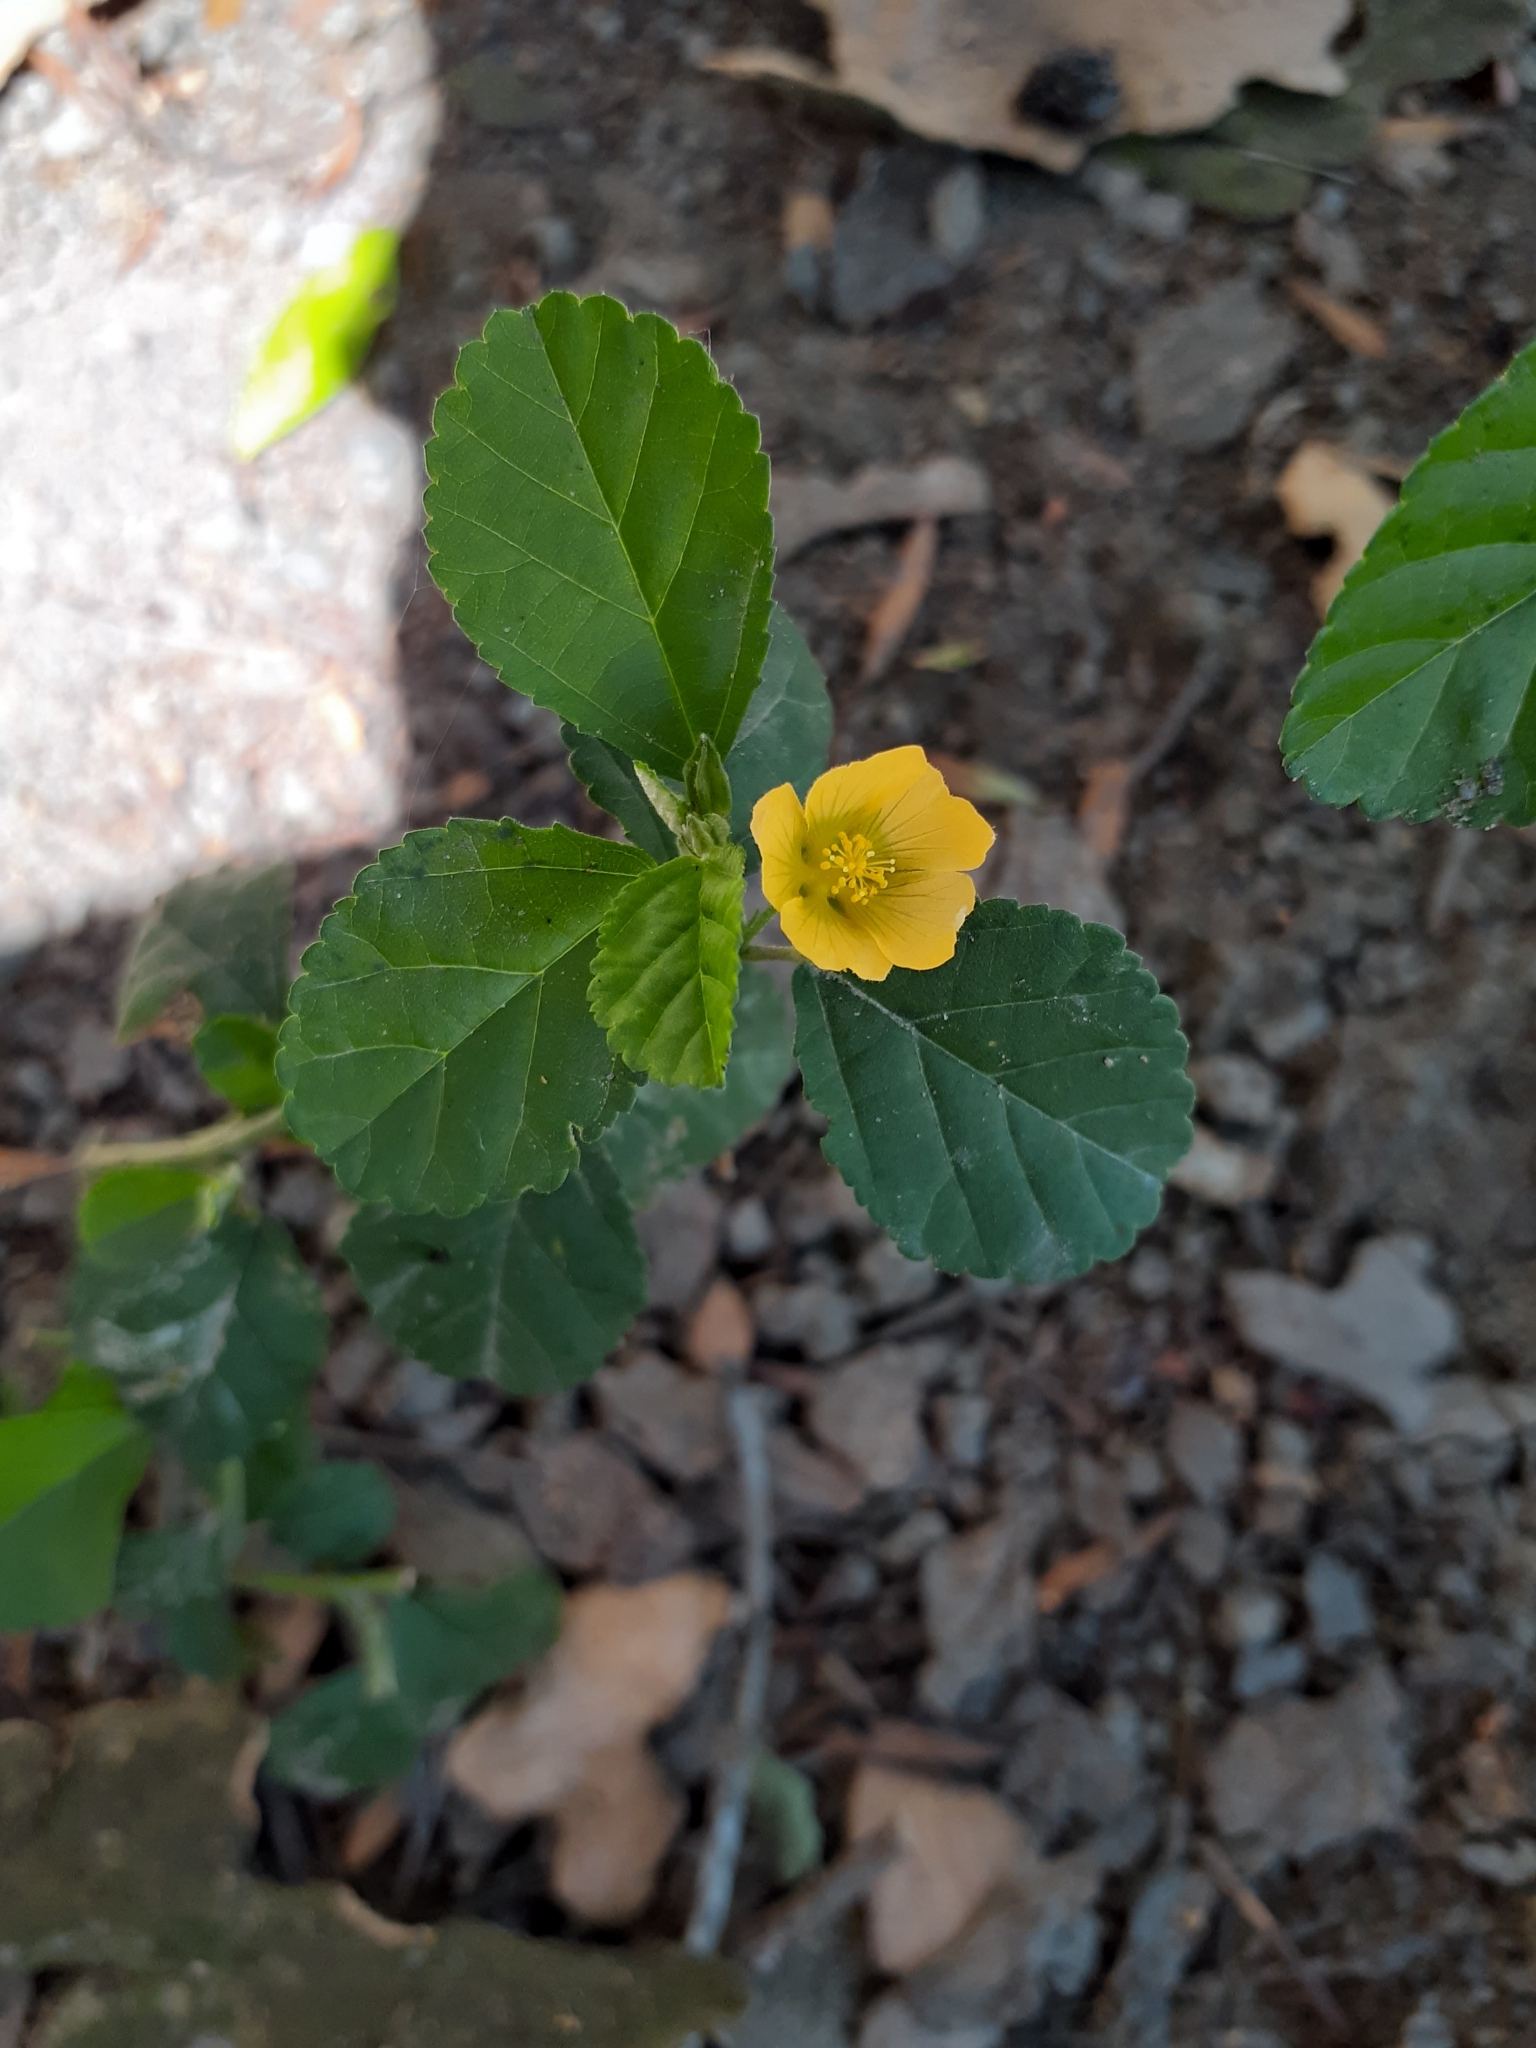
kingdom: Plantae
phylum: Tracheophyta
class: Magnoliopsida
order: Malvales
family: Malvaceae
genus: Malvastrum
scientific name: Malvastrum coromandelianum
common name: Threelobe false mallow
